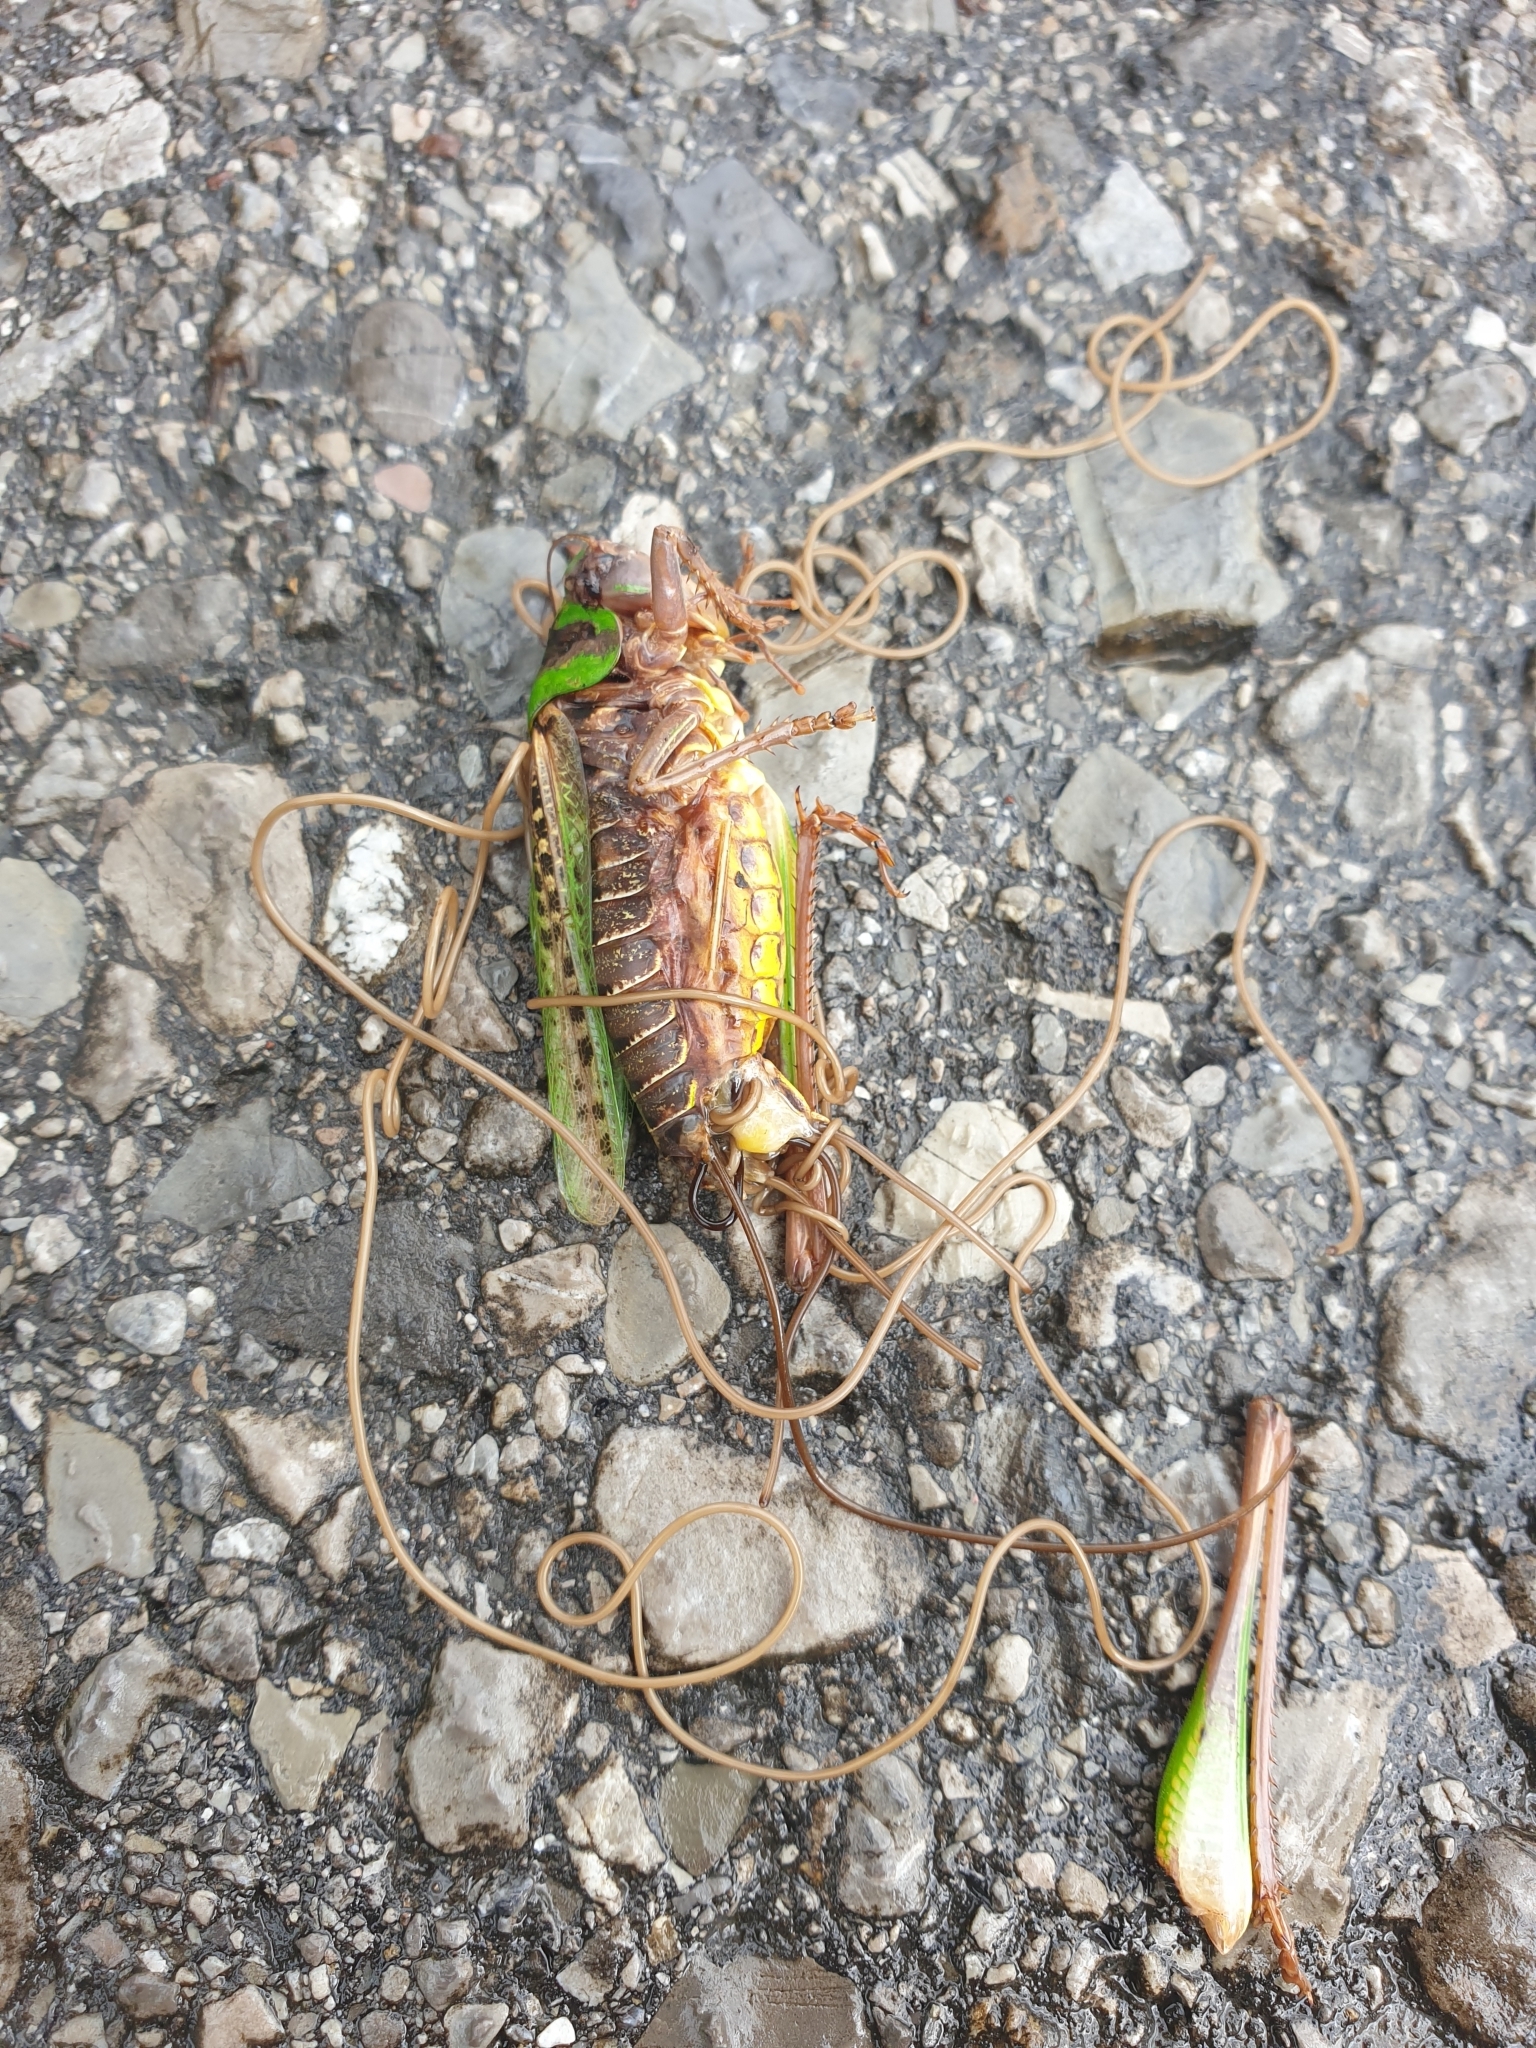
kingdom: Animalia
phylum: Arthropoda
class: Insecta
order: Orthoptera
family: Tettigoniidae
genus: Decticus
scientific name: Decticus verrucivorus
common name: Wart-biter
